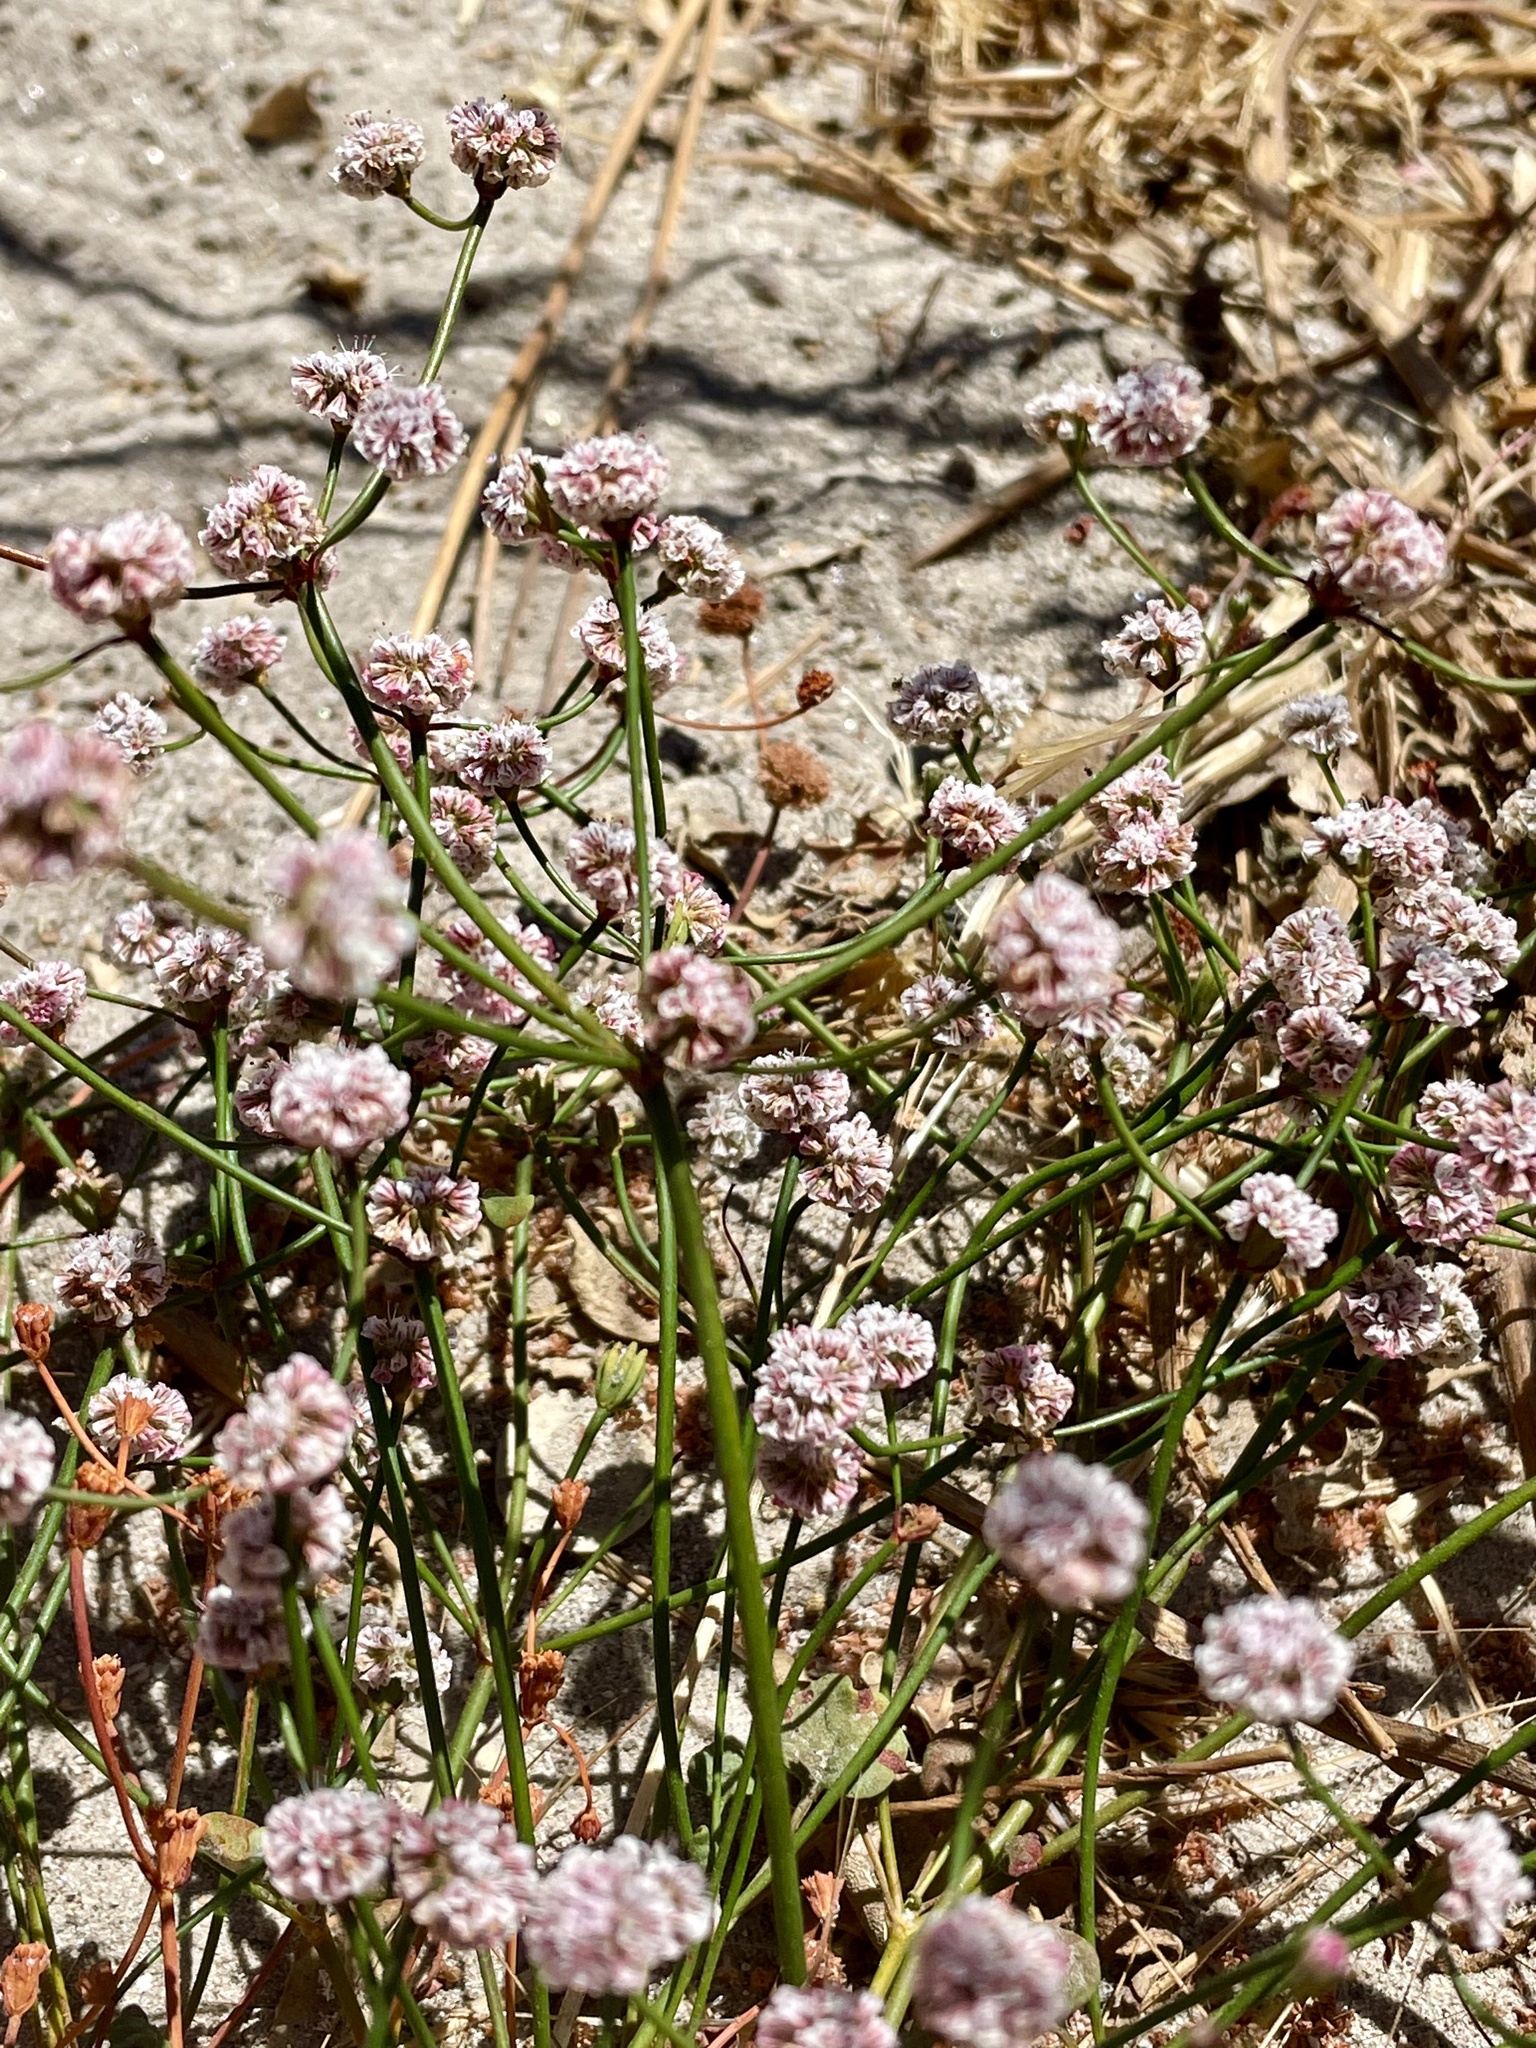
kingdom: Plantae
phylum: Tracheophyta
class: Magnoliopsida
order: Caryophyllales
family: Polygonaceae
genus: Eriogonum
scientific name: Eriogonum nortonii
